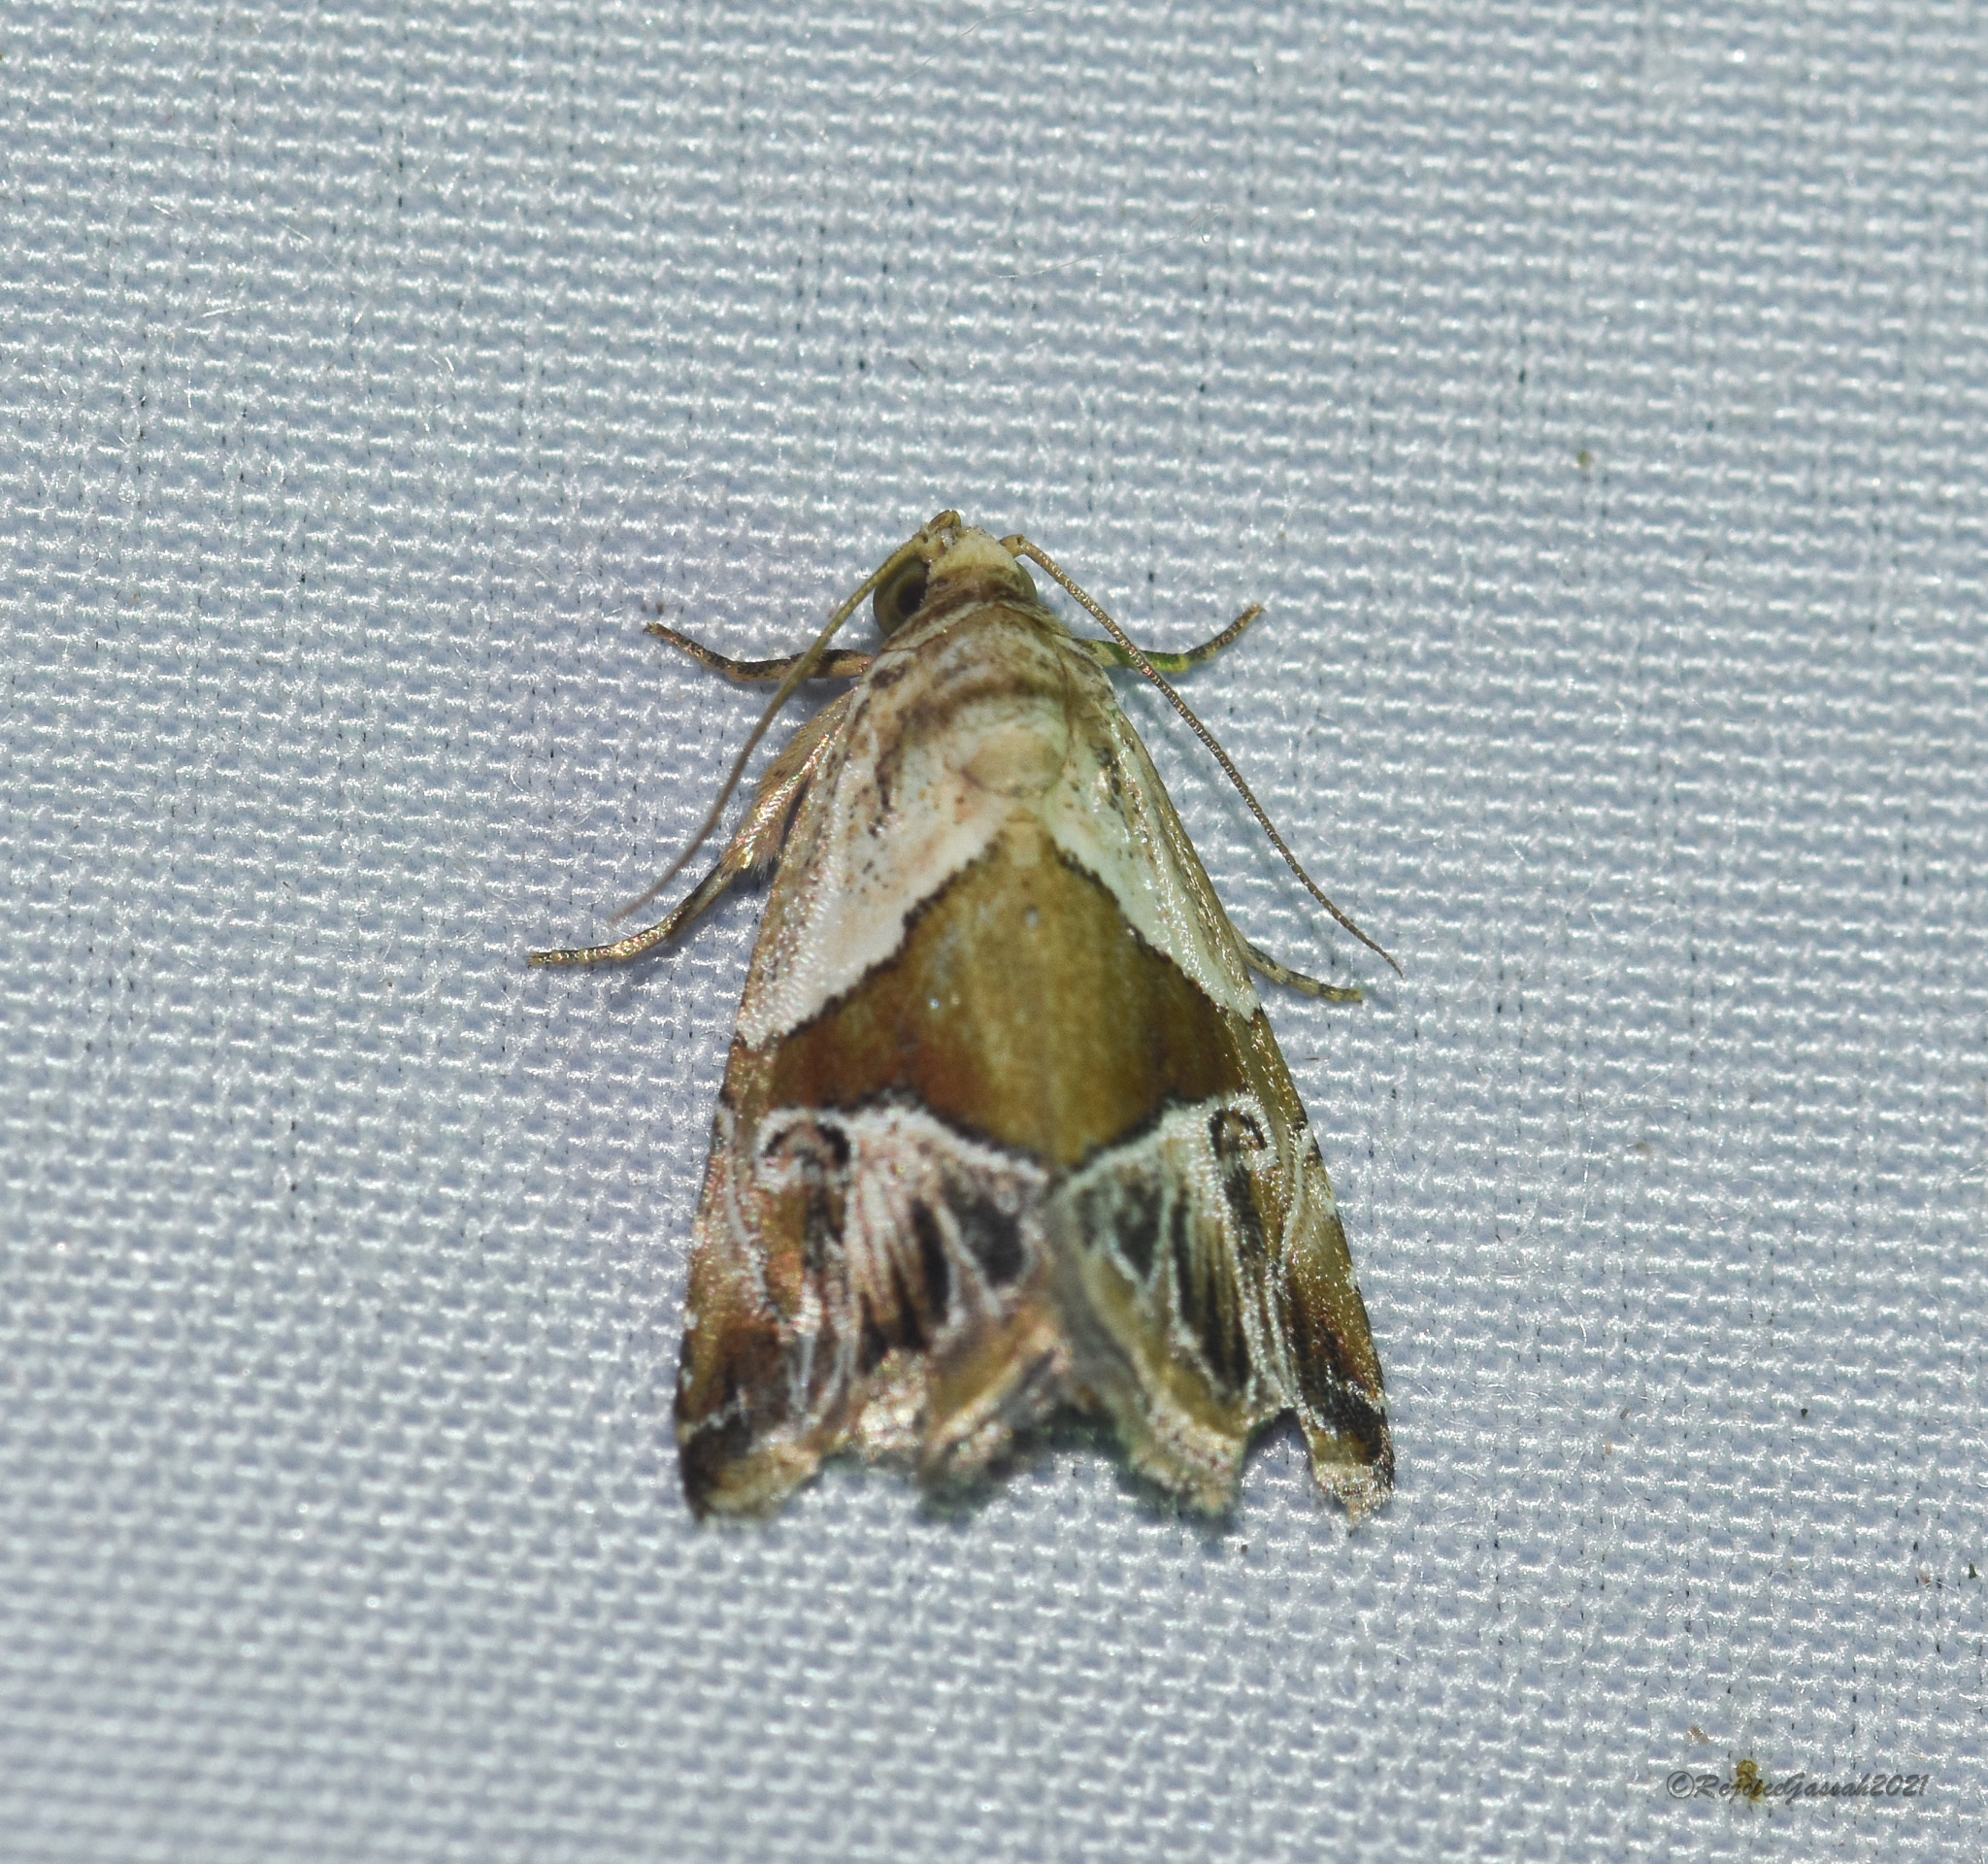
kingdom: Animalia
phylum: Arthropoda
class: Insecta
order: Lepidoptera
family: Noctuidae
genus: Maliattha
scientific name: Maliattha separata
